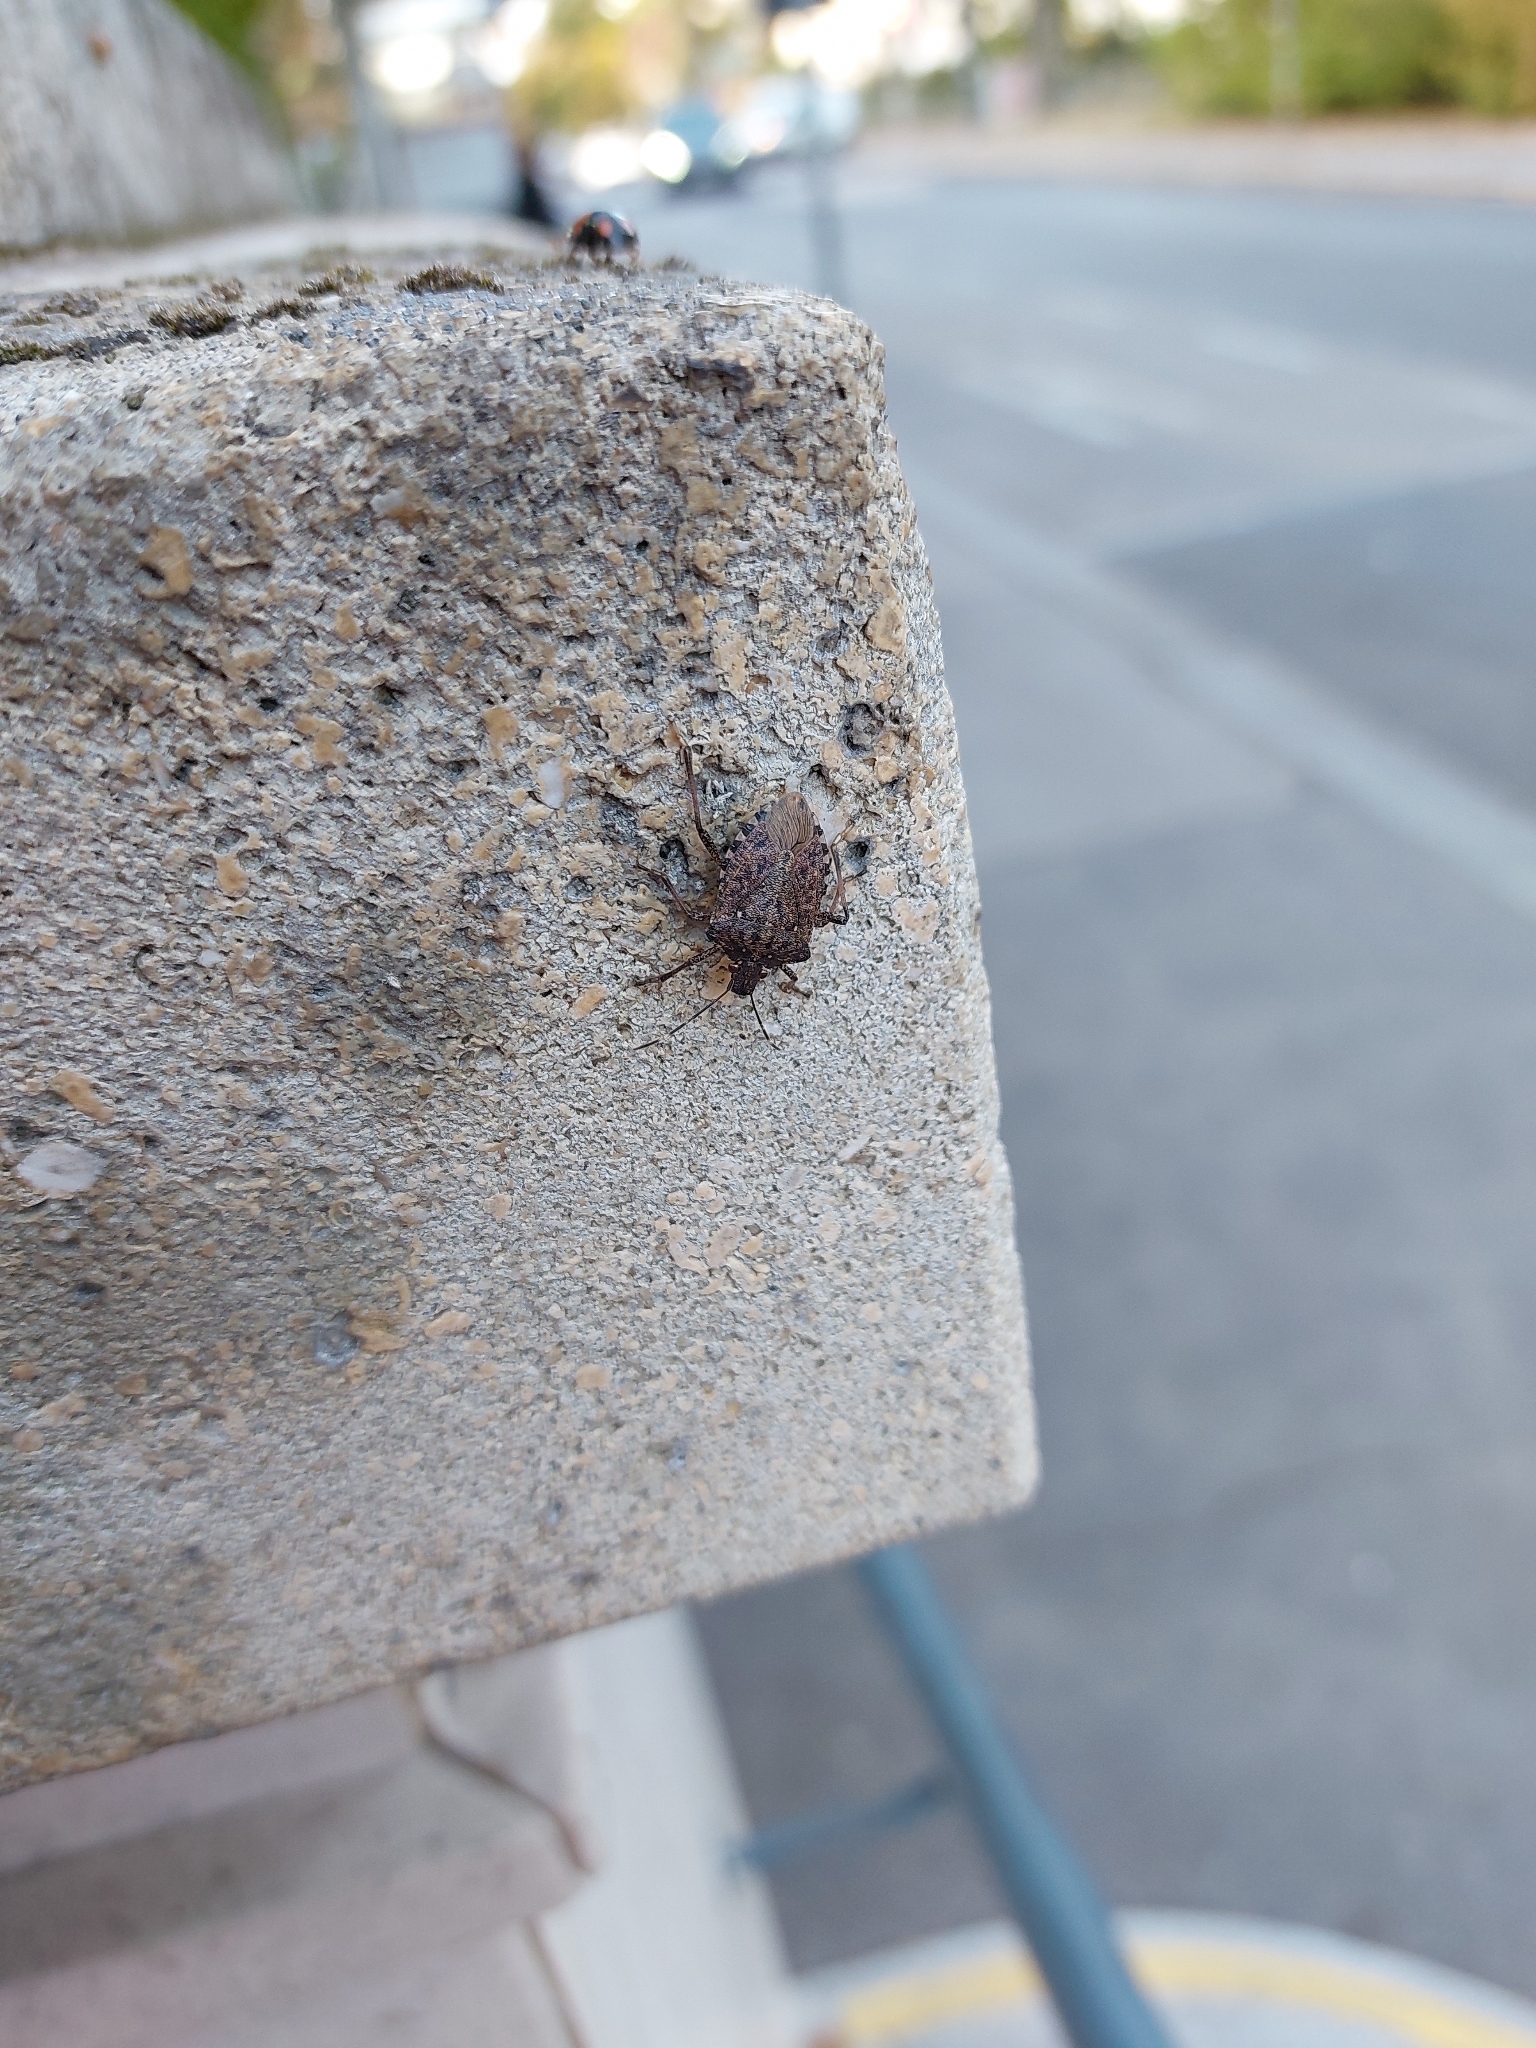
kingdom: Animalia
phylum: Arthropoda
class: Insecta
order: Hemiptera
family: Pentatomidae
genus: Halyomorpha
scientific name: Halyomorpha halys
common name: Brown marmorated stink bug
